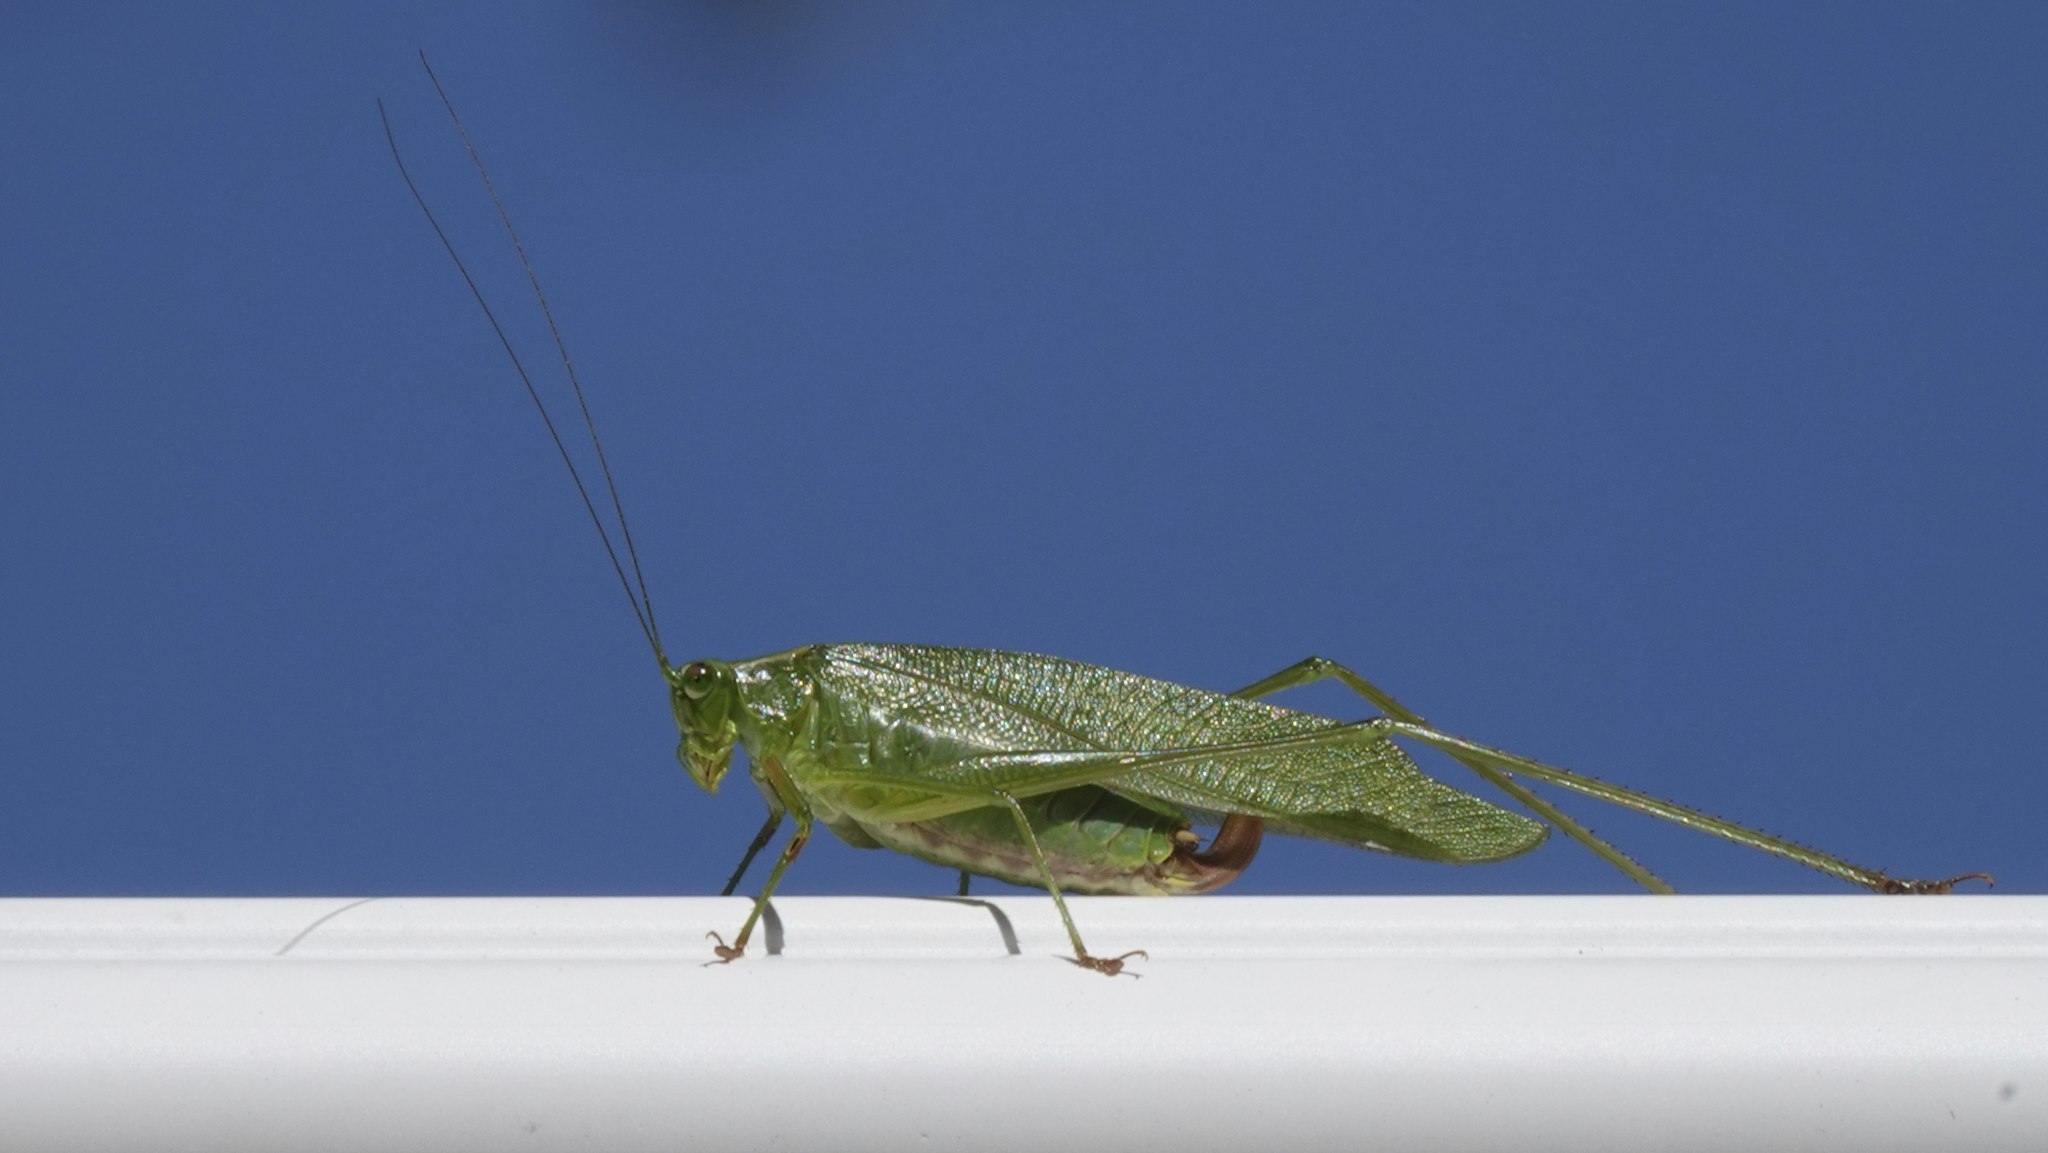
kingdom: Animalia
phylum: Arthropoda
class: Insecta
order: Orthoptera
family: Tettigoniidae
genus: Scudderia
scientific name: Scudderia furcata
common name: Fork-tailed bush katydid
